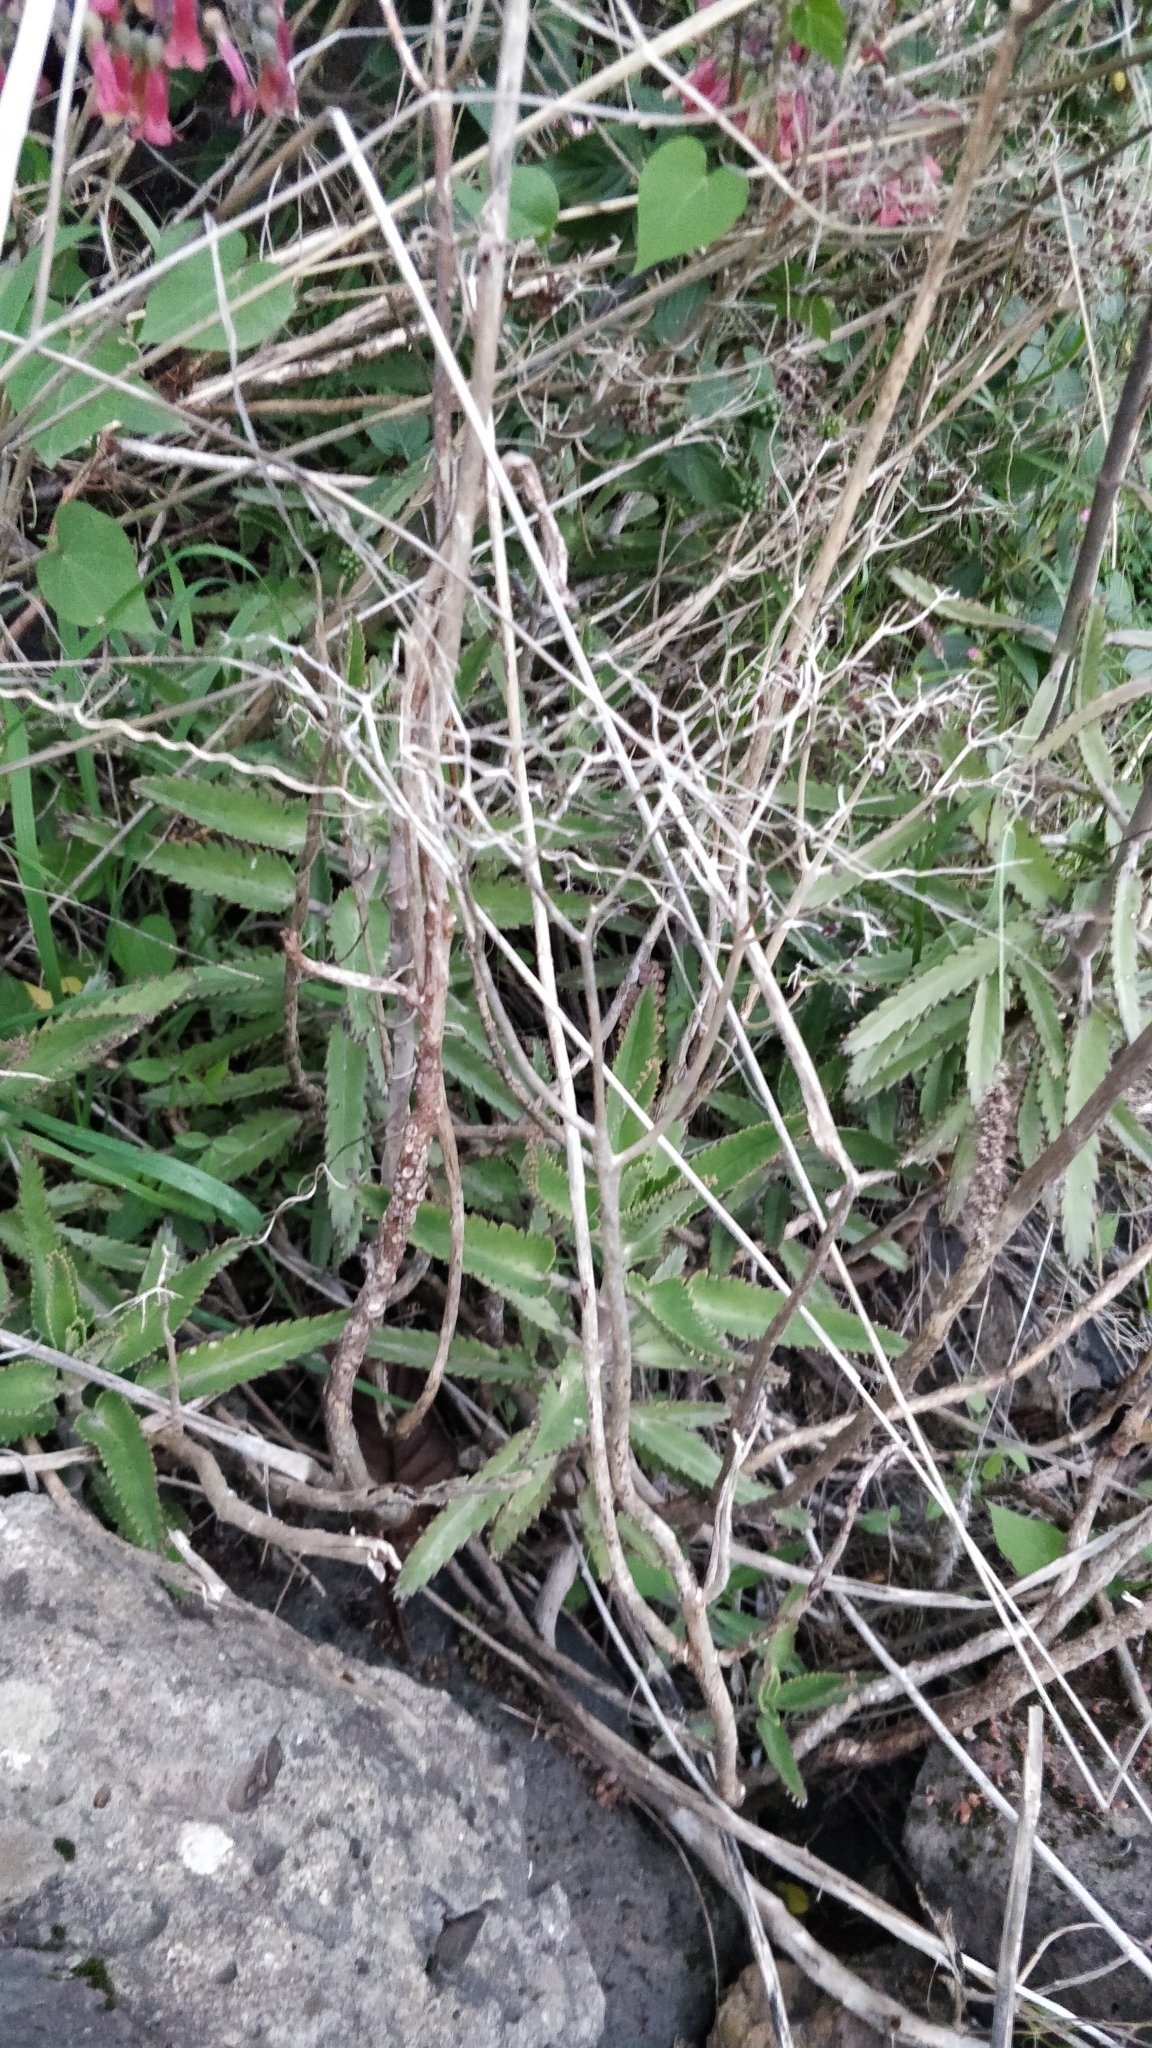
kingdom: Plantae
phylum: Tracheophyta
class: Magnoliopsida
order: Saxifragales
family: Crassulaceae
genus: Kalanchoe
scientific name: Kalanchoe houghtonii
